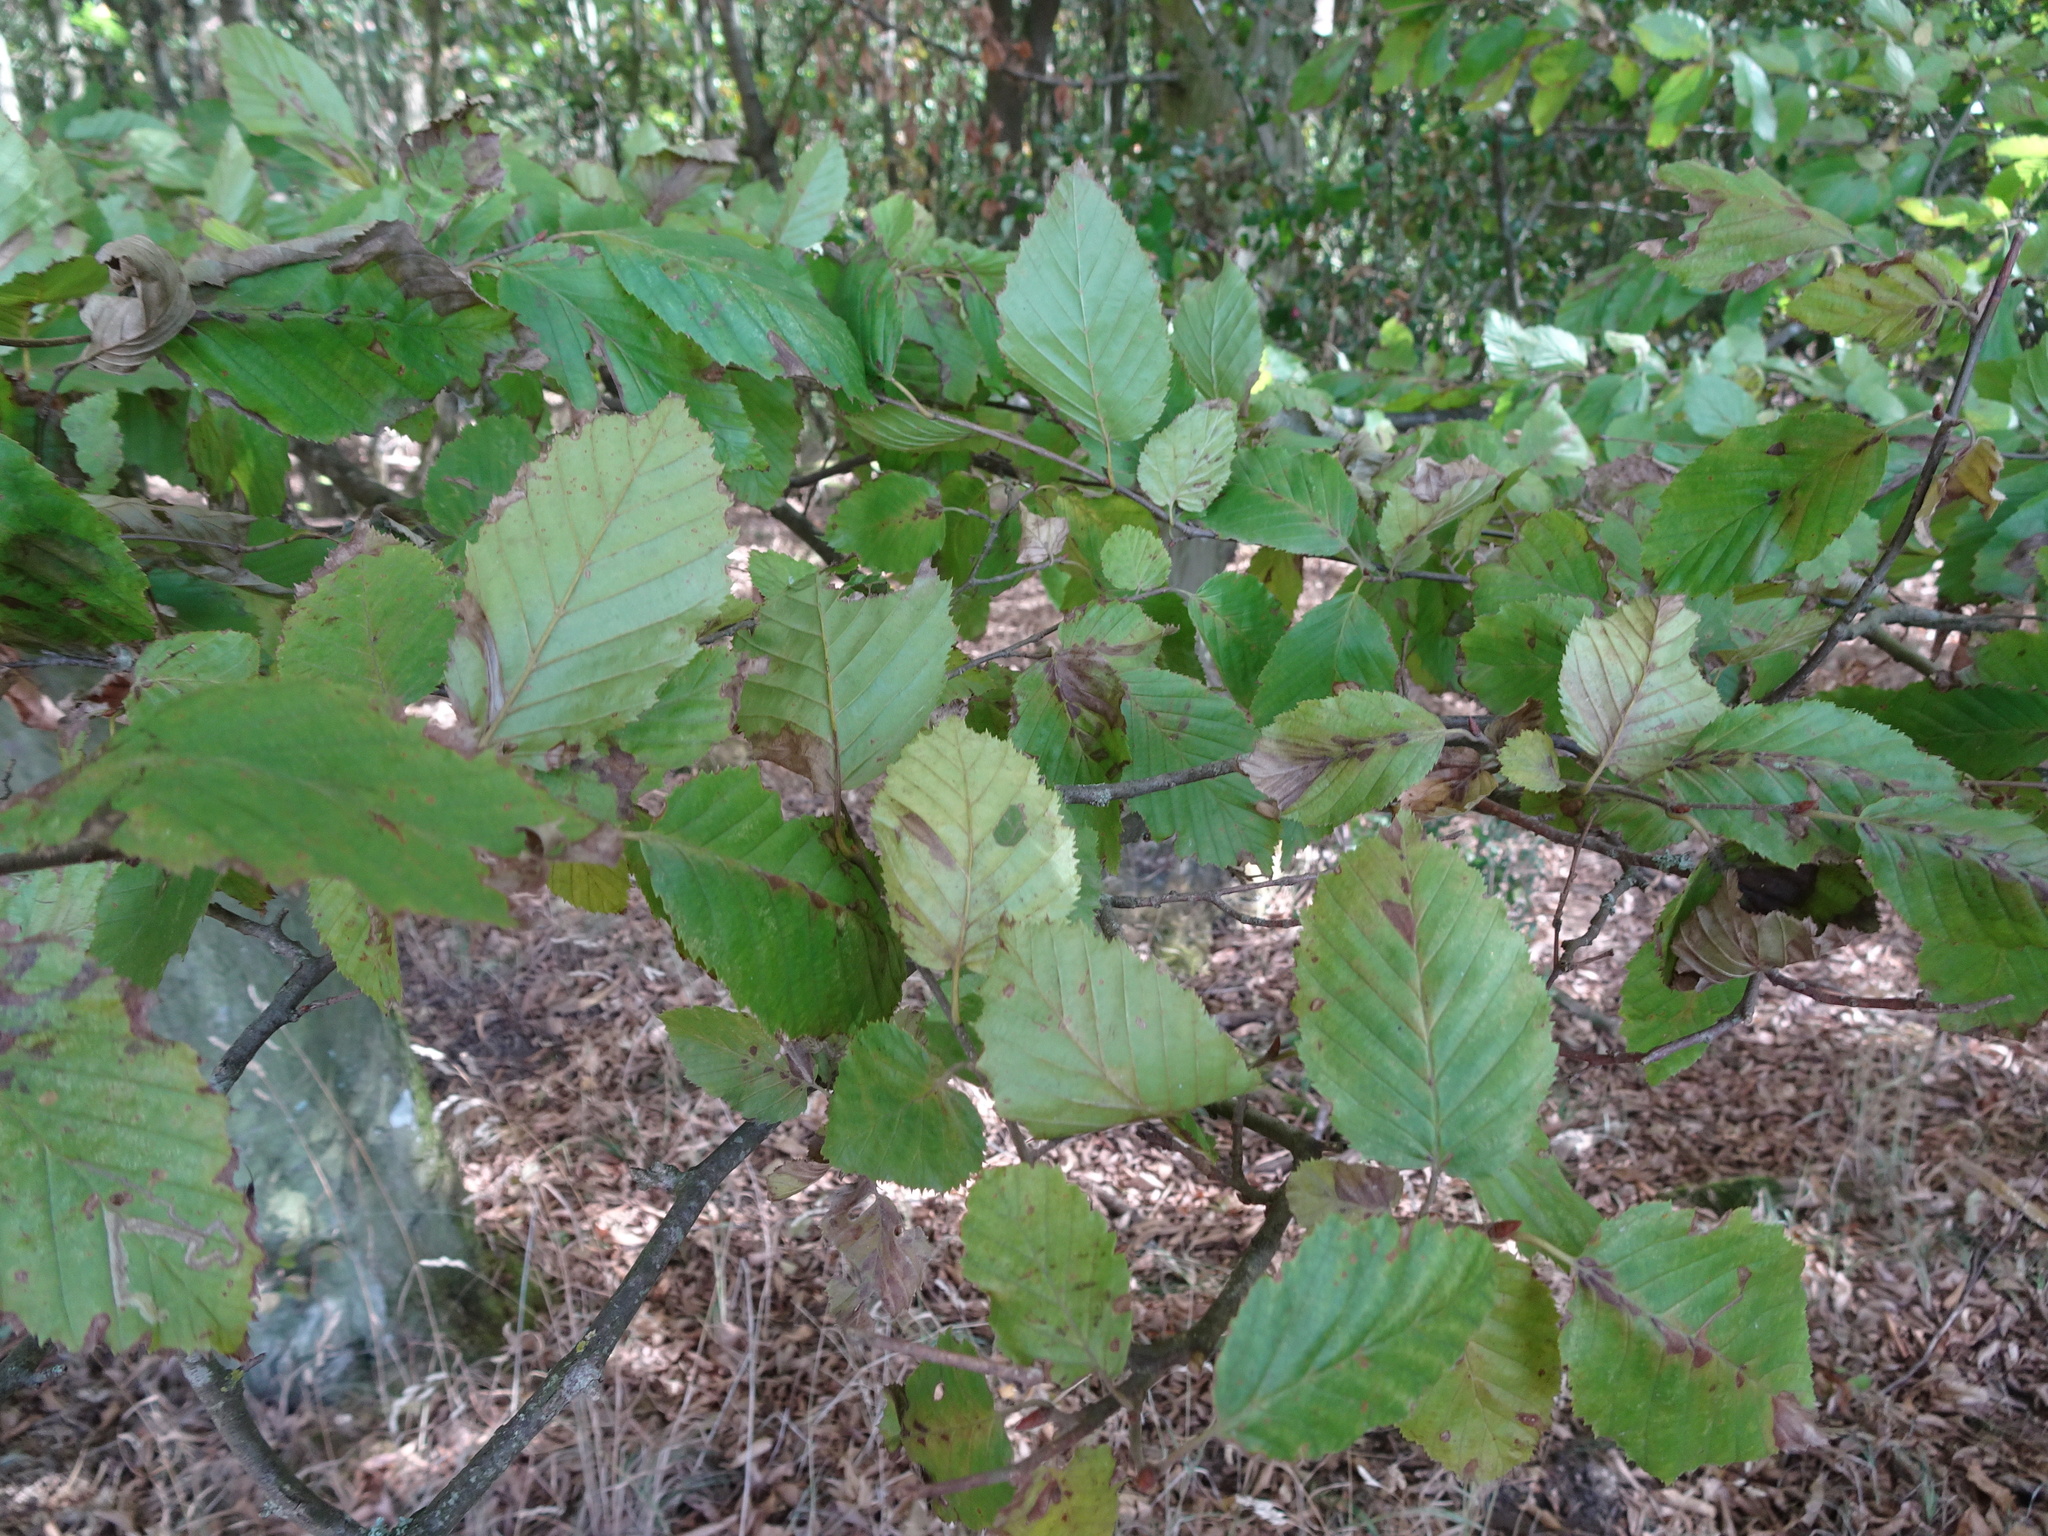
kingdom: Plantae
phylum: Tracheophyta
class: Magnoliopsida
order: Fagales
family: Betulaceae
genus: Carpinus
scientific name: Carpinus betulus
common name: Hornbeam
